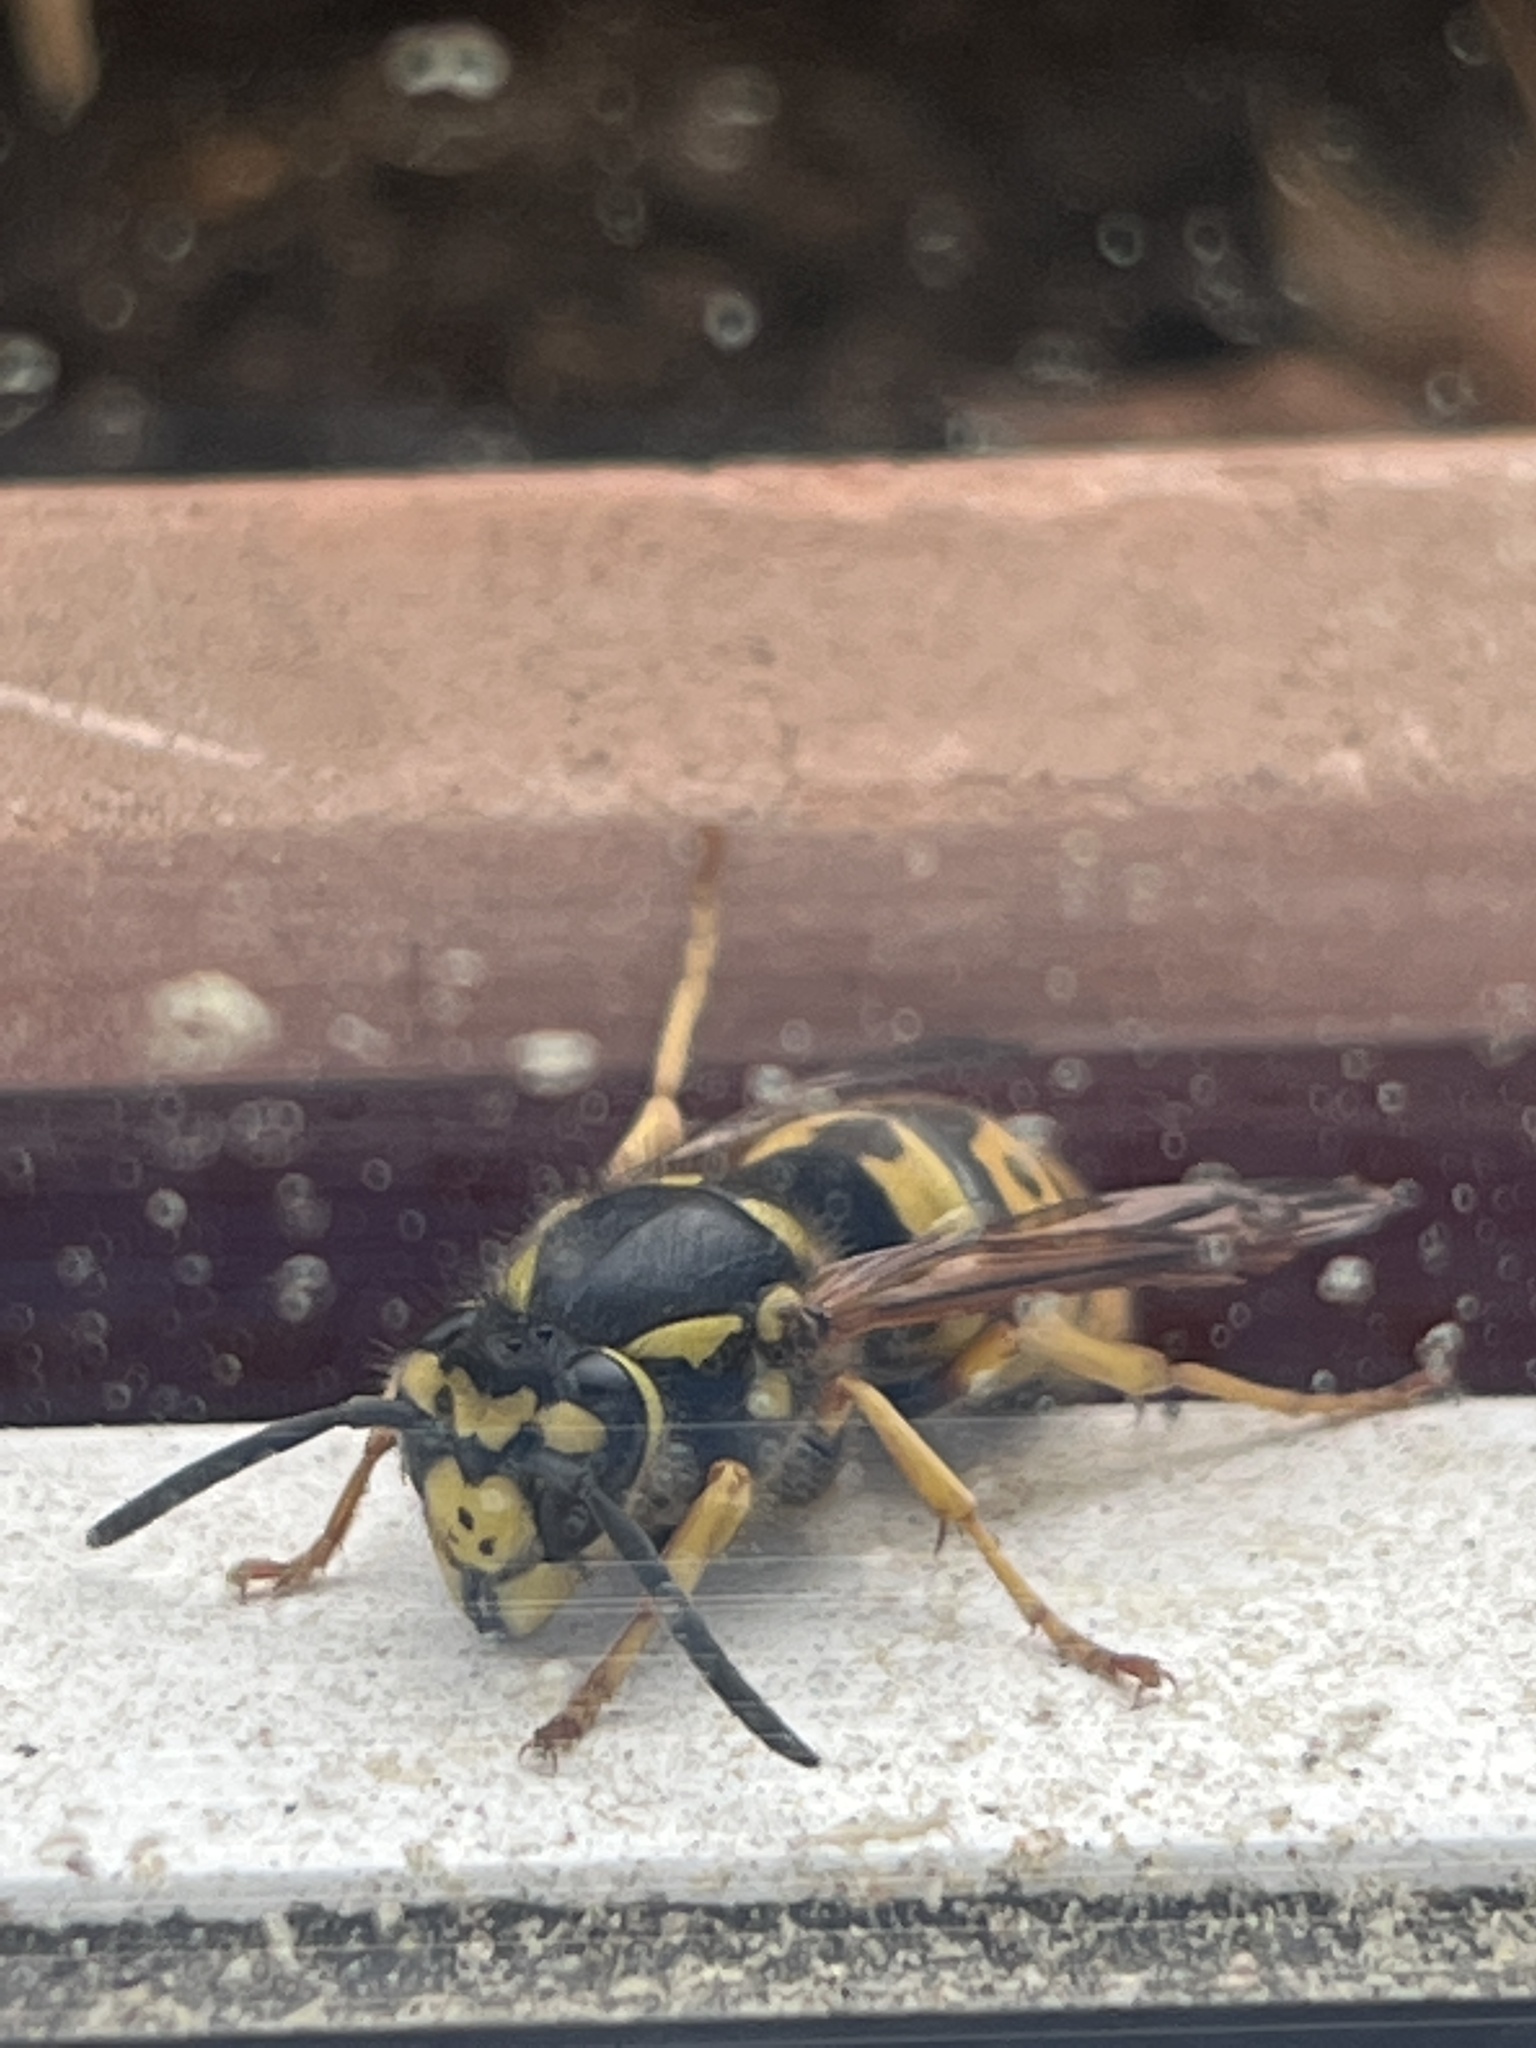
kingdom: Animalia
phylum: Arthropoda
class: Insecta
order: Hymenoptera
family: Vespidae
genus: Vespula
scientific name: Vespula germanica
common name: German wasp
